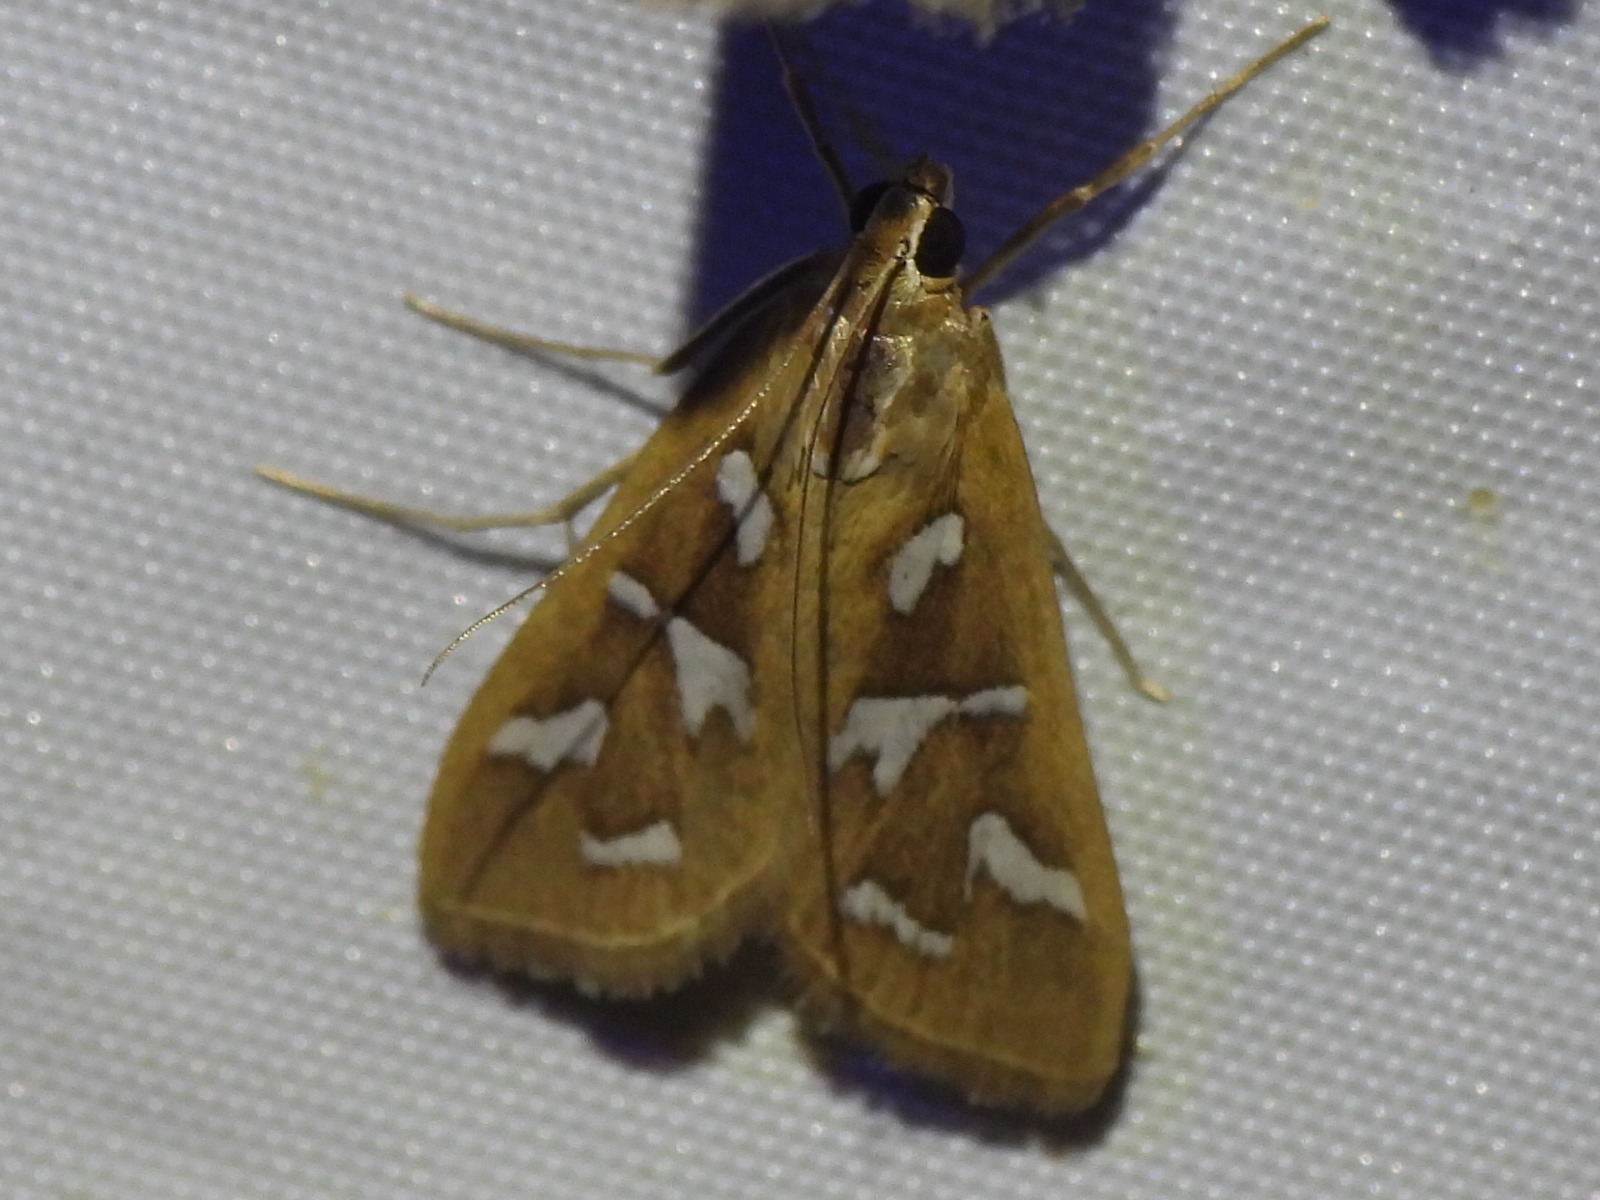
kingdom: Animalia
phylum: Arthropoda
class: Insecta
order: Lepidoptera
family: Crambidae
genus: Diastictis
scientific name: Diastictis fracturalis
